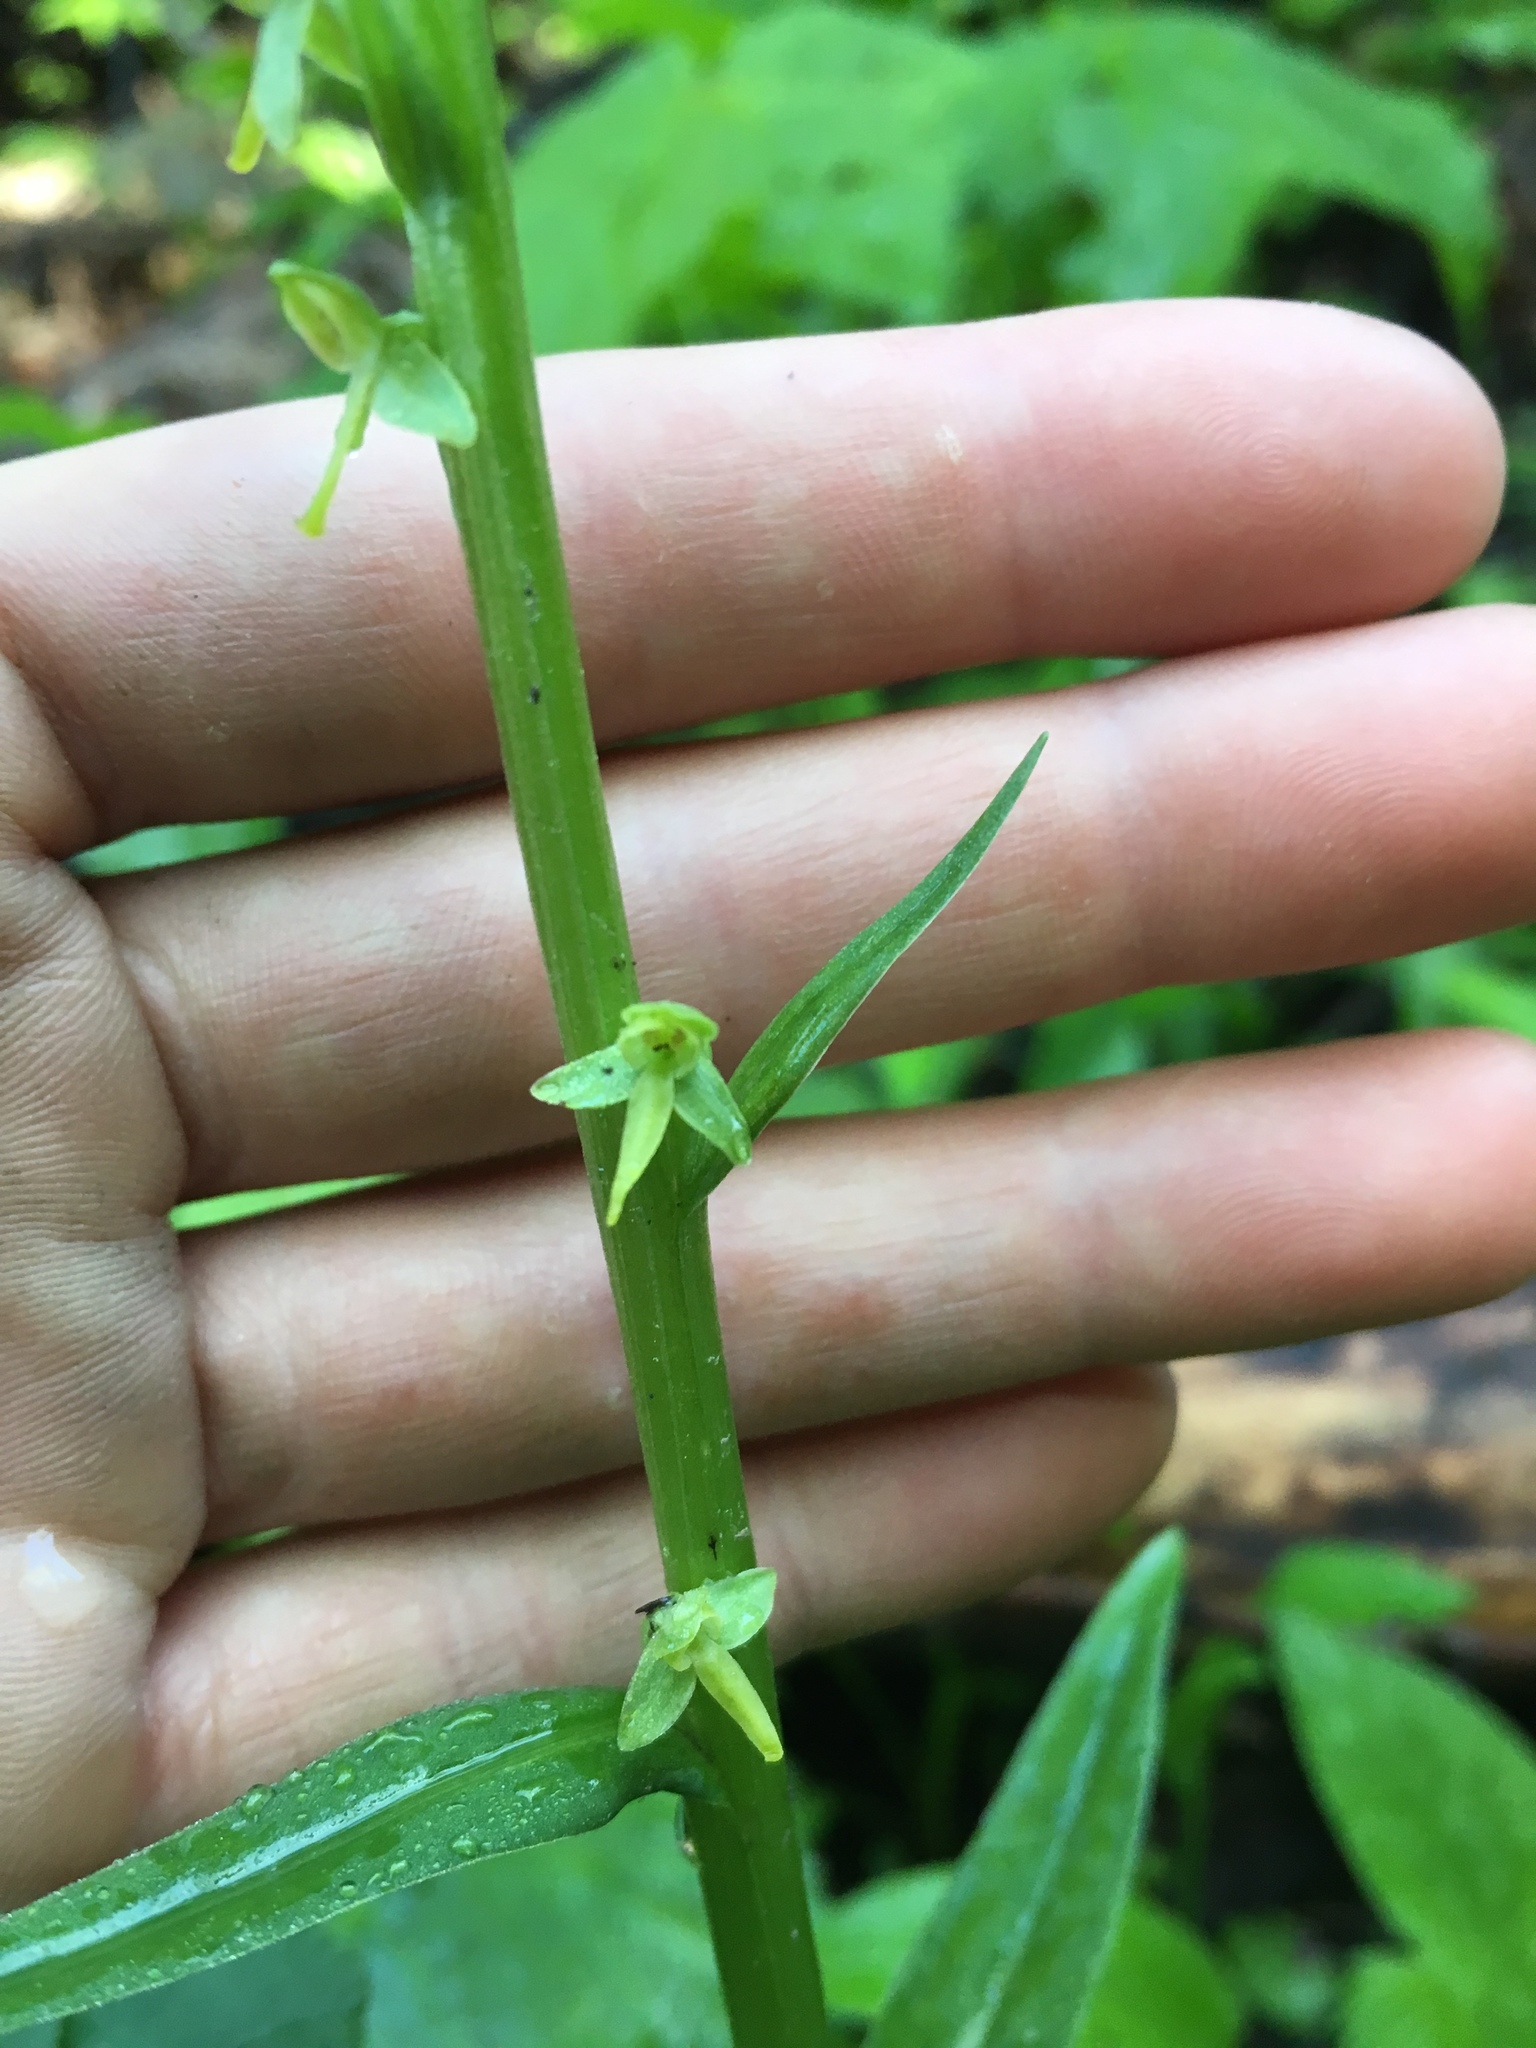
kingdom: Plantae
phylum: Tracheophyta
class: Liliopsida
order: Asparagales
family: Orchidaceae
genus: Platanthera
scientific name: Platanthera stricta
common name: Slender bog orchid
